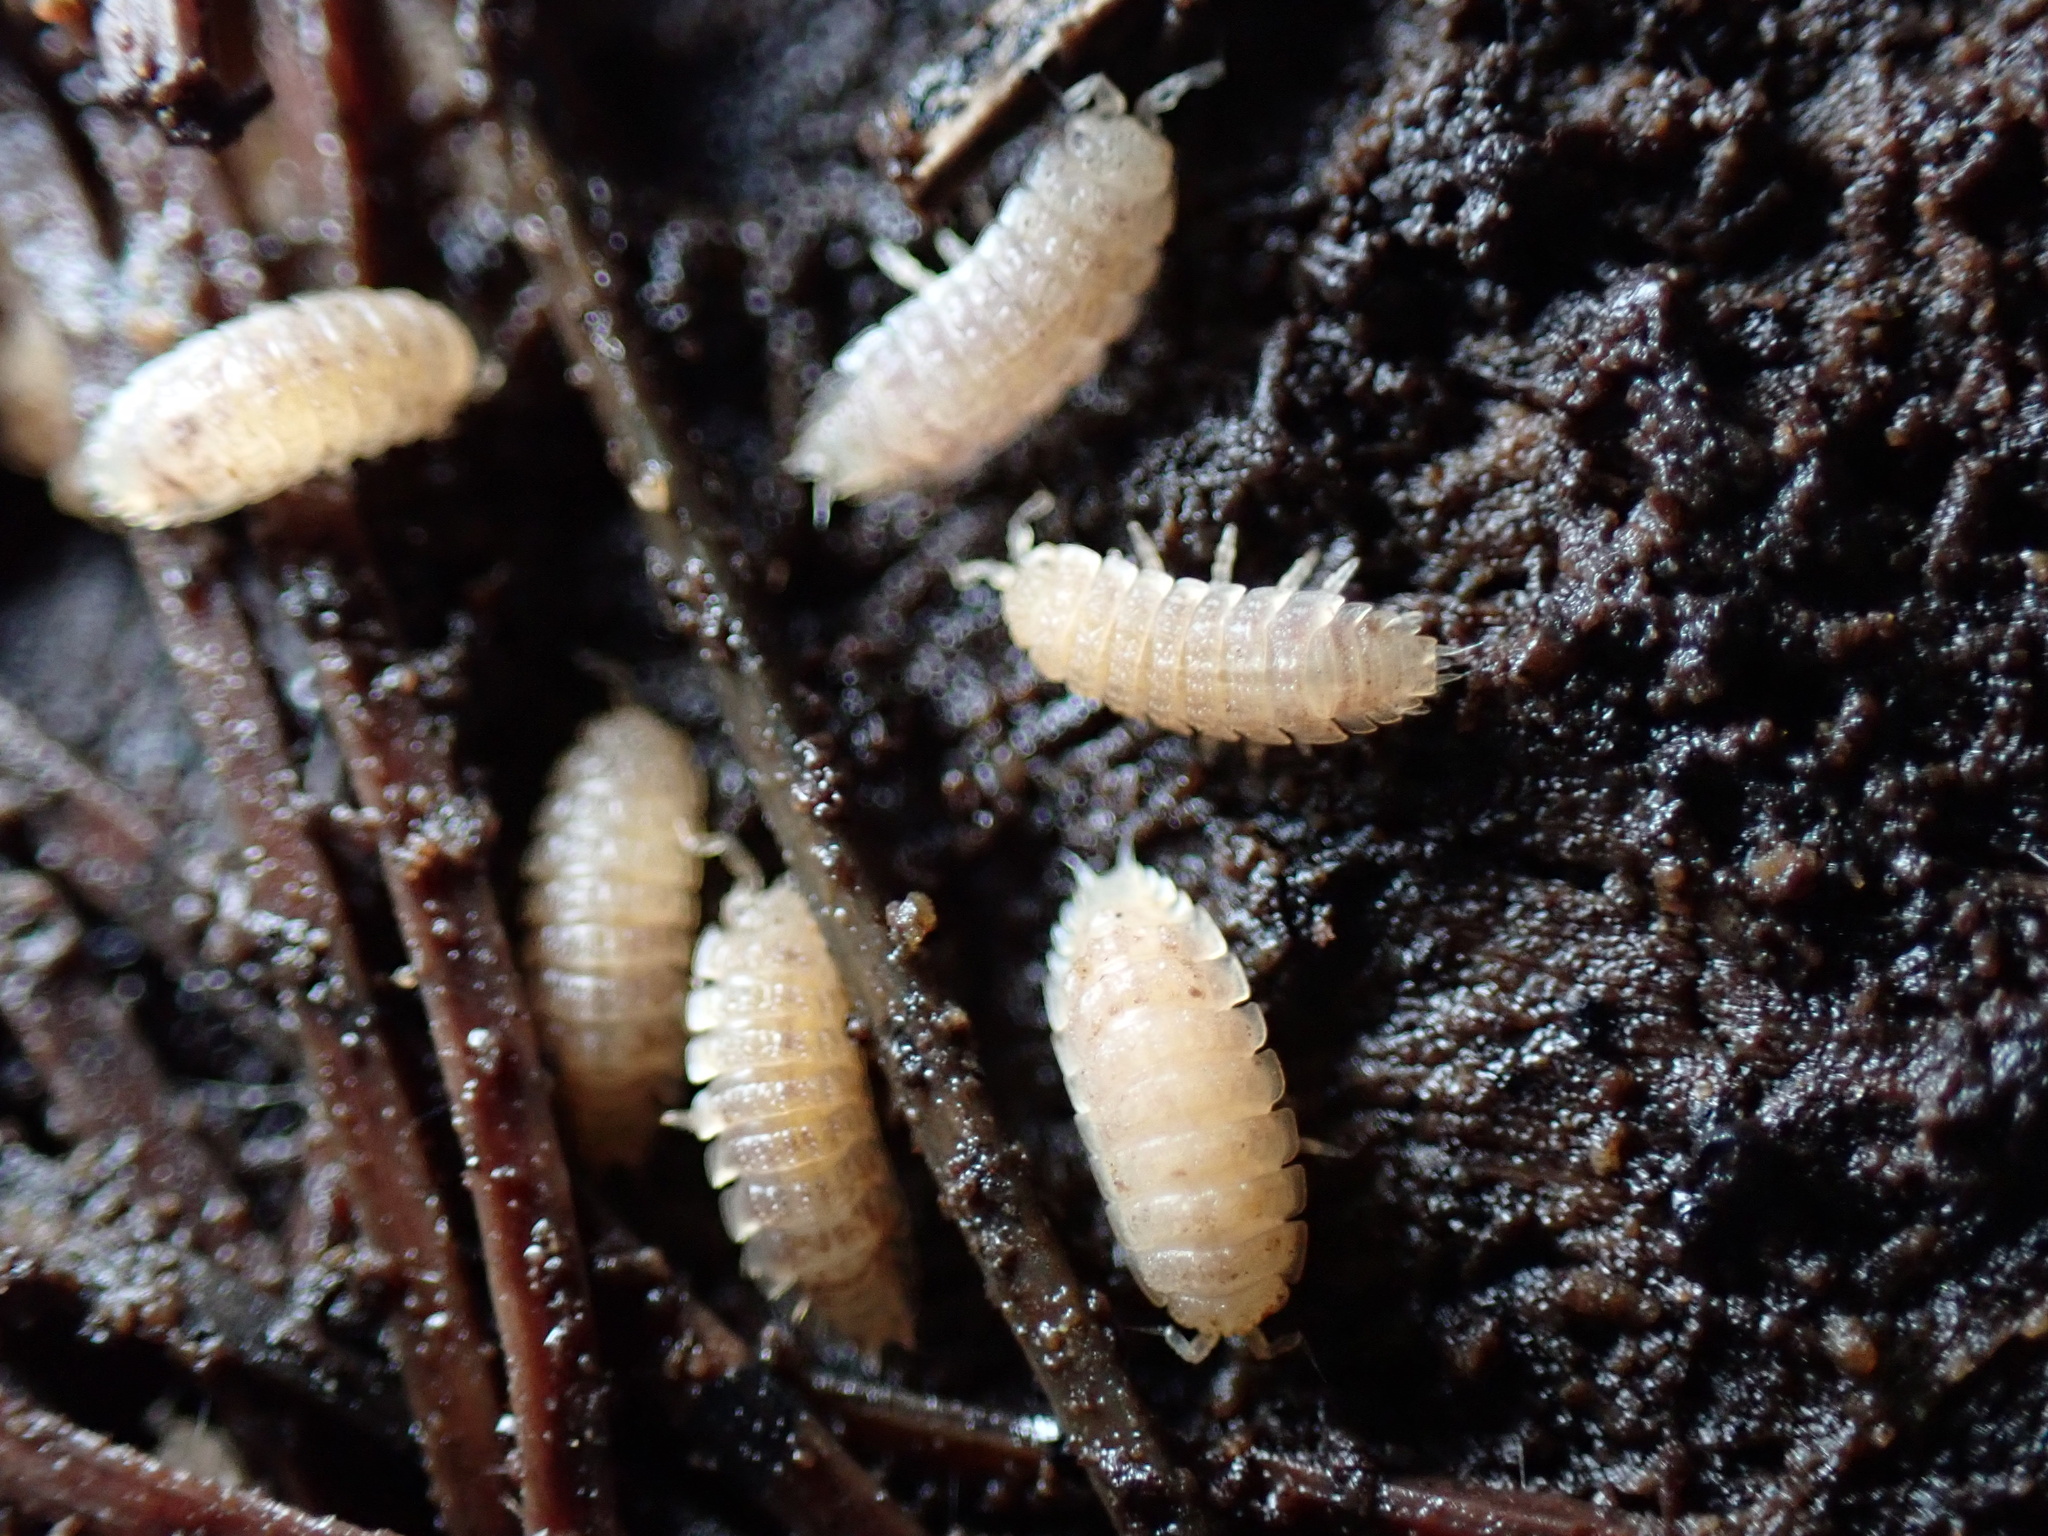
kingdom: Animalia
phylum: Arthropoda
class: Malacostraca
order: Isopoda
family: Trichoniscidae
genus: Haplophthalmus
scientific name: Haplophthalmus danicus
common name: Pillbug
